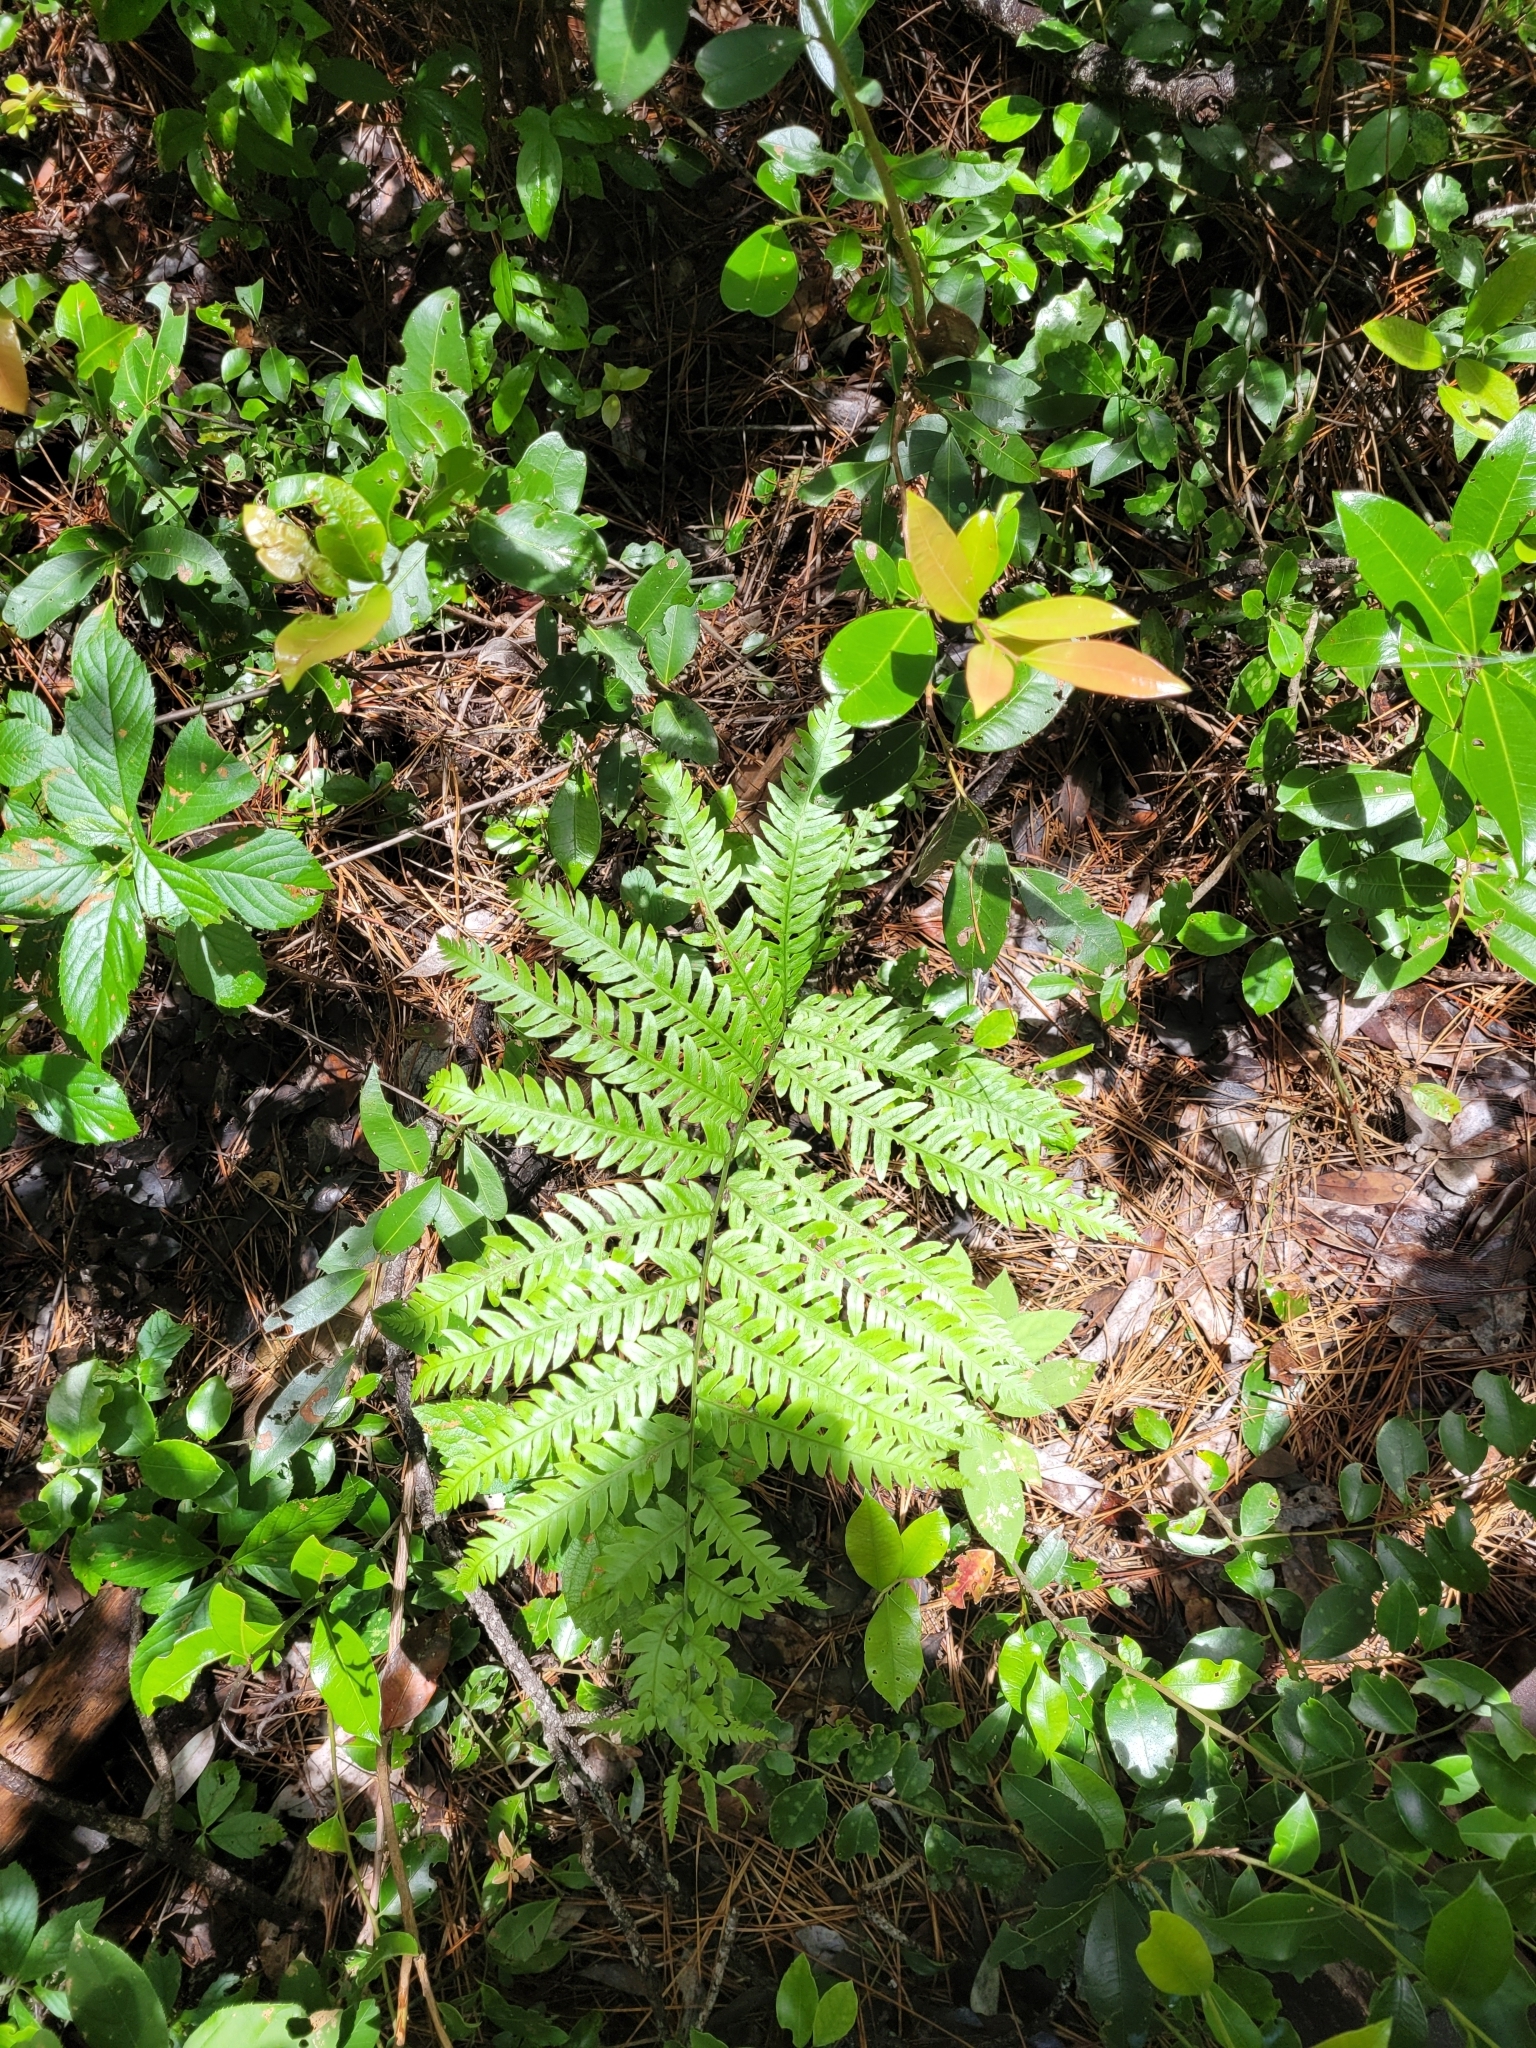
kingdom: Plantae
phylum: Tracheophyta
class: Polypodiopsida
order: Polypodiales
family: Blechnaceae
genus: Anchistea
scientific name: Anchistea virginica
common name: Virginia chain fern
